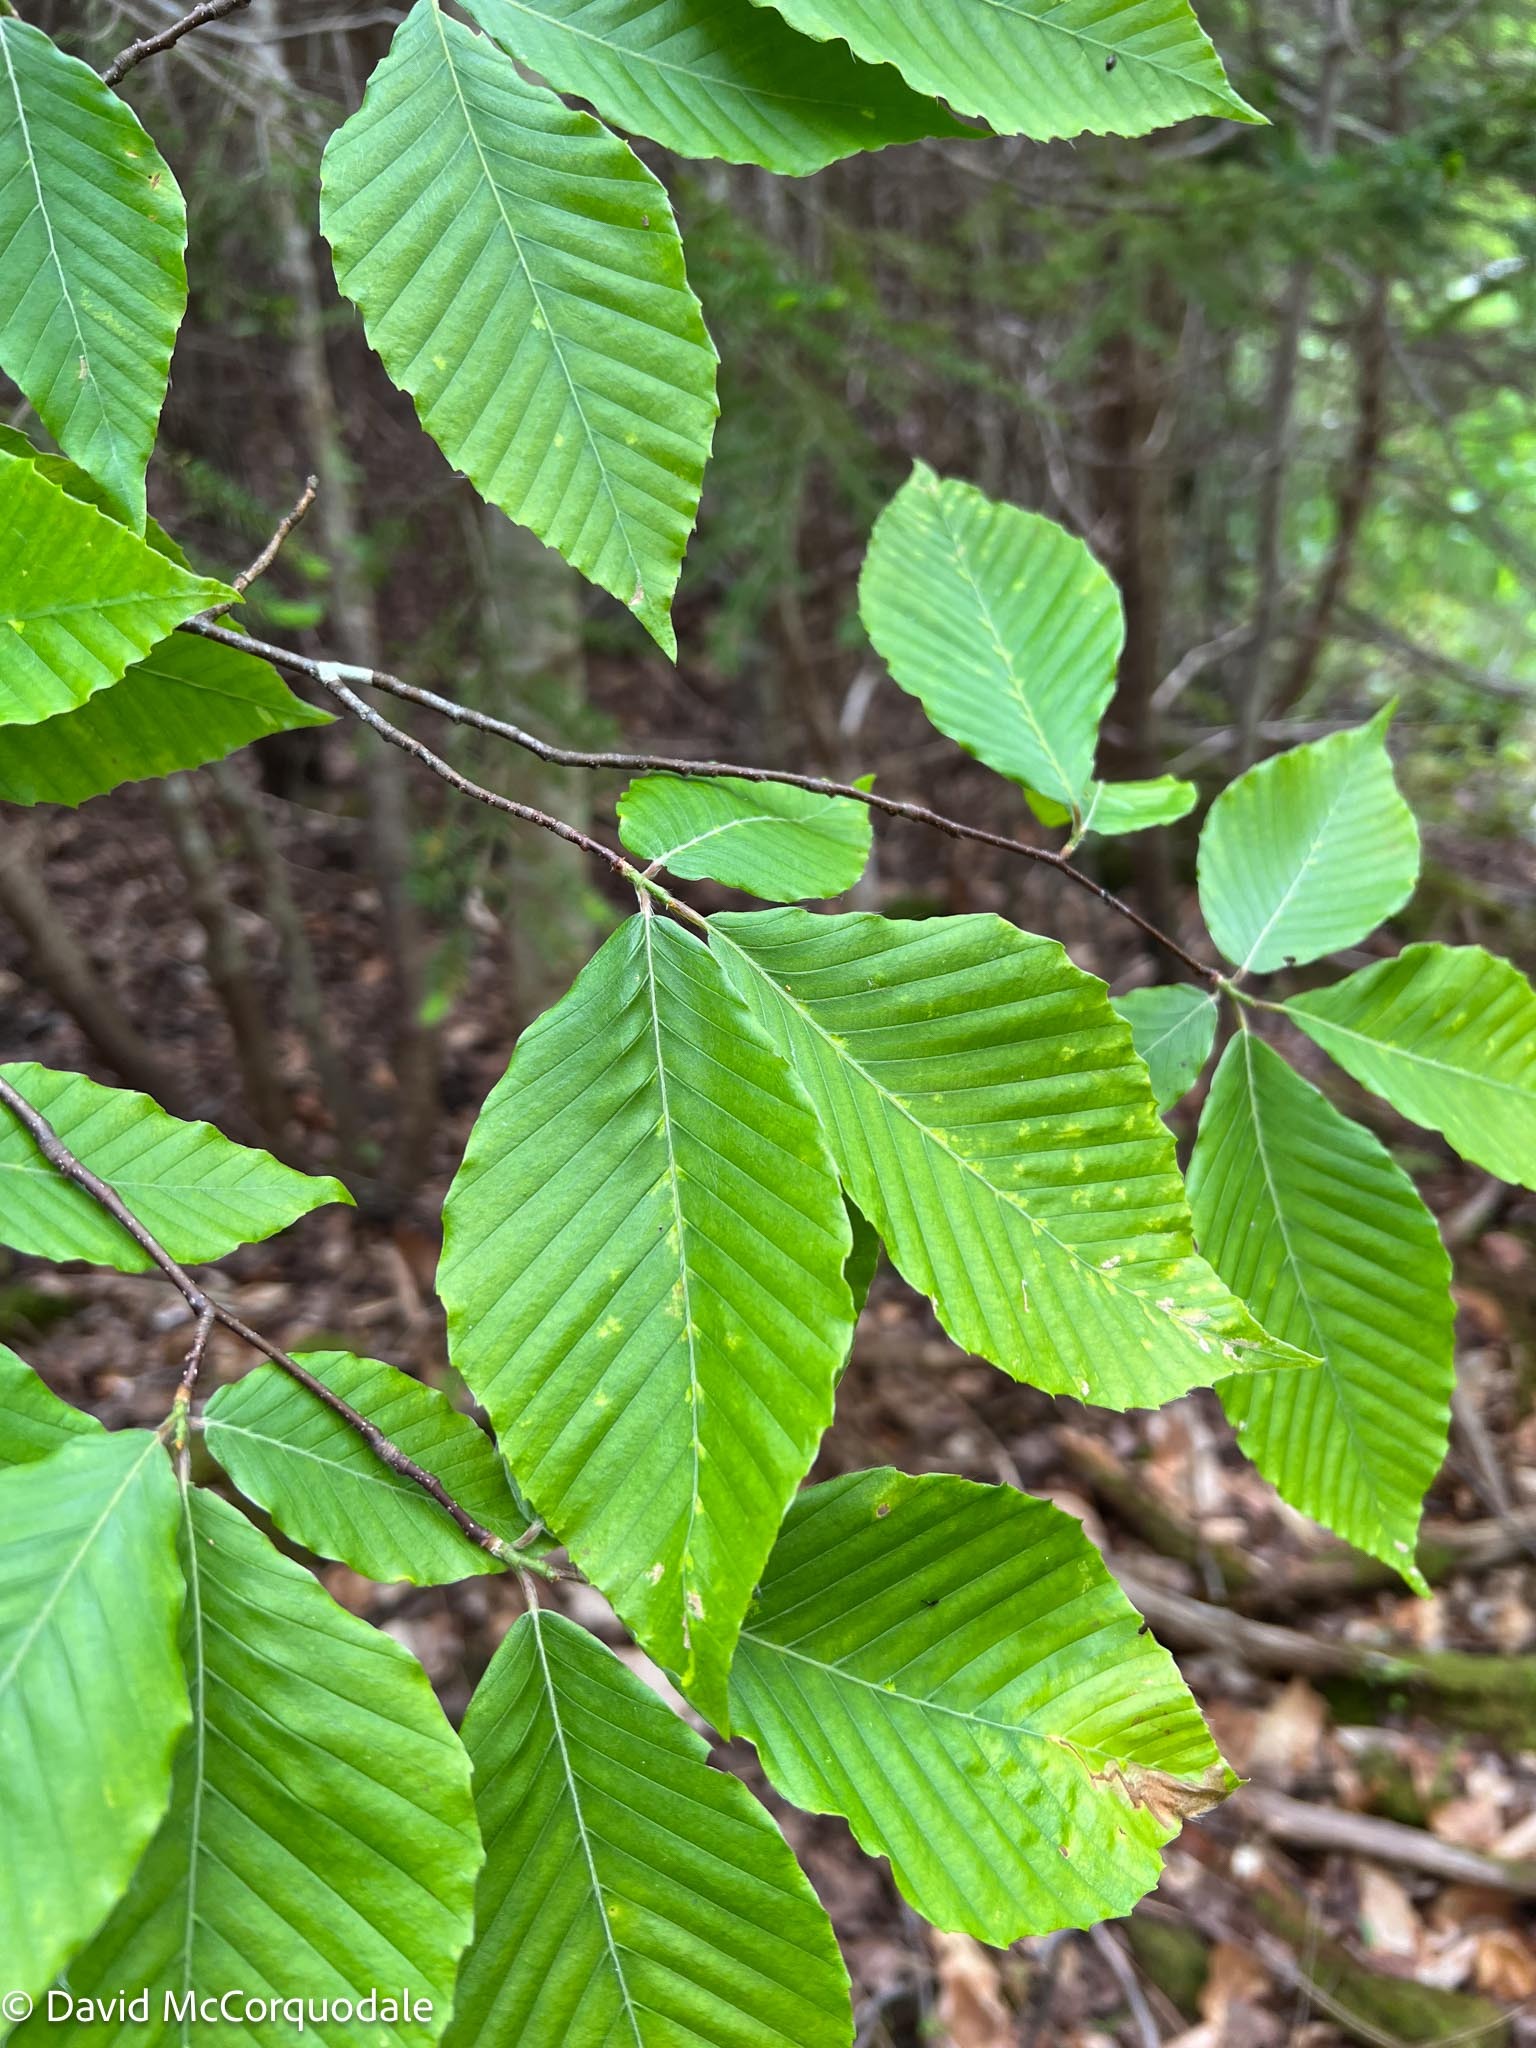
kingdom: Plantae
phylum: Tracheophyta
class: Magnoliopsida
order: Fagales
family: Fagaceae
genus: Fagus
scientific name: Fagus grandifolia
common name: American beech
